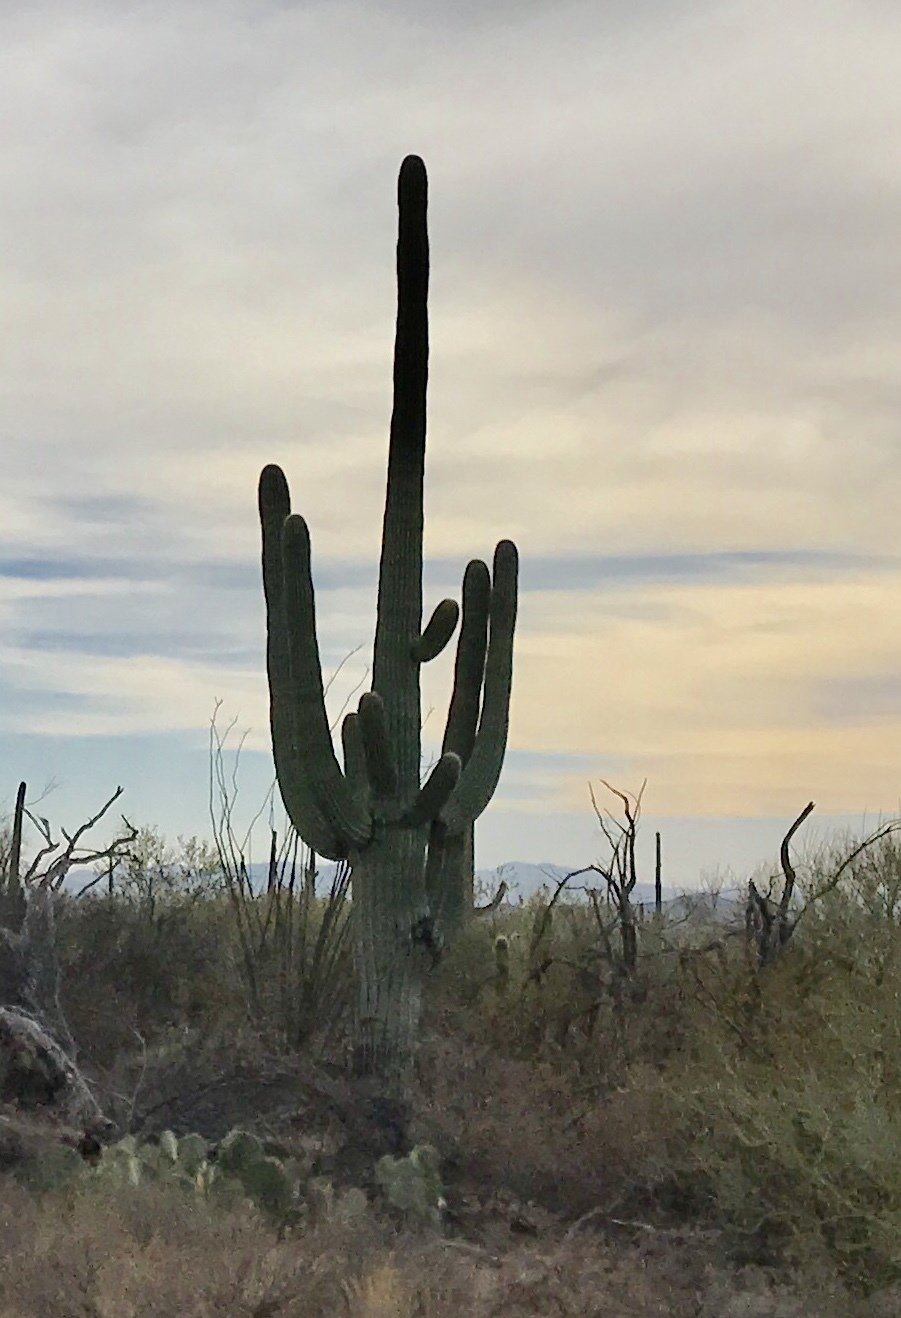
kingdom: Plantae
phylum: Tracheophyta
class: Magnoliopsida
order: Caryophyllales
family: Cactaceae
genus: Carnegiea
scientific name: Carnegiea gigantea
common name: Saguaro
